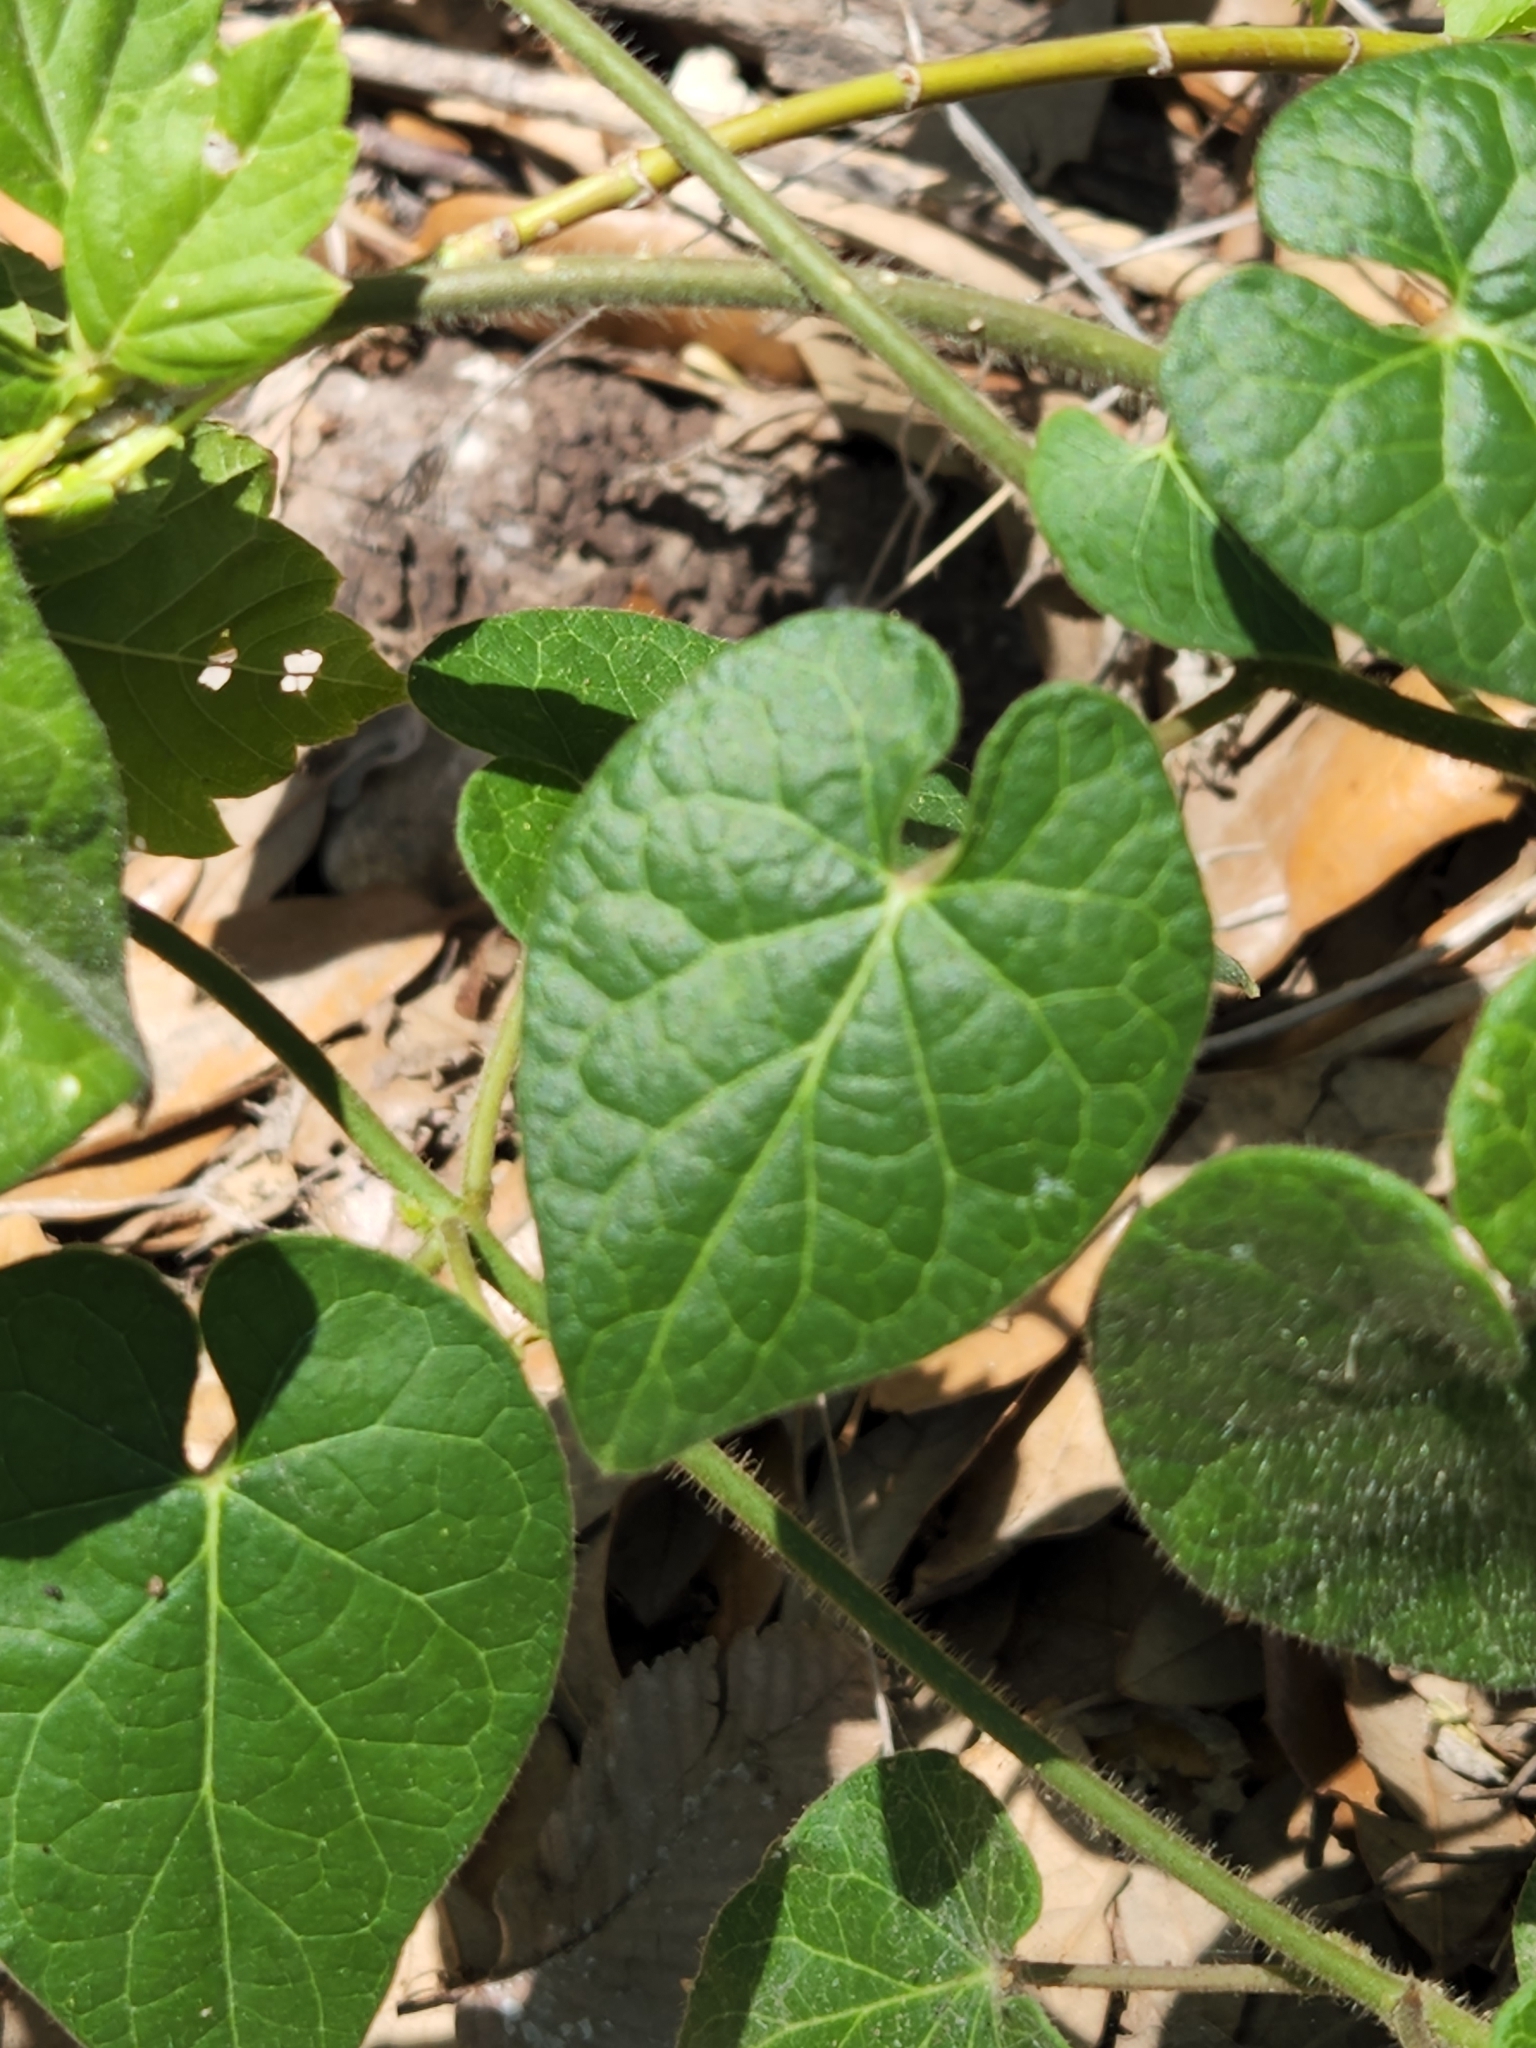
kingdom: Plantae
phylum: Tracheophyta
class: Magnoliopsida
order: Gentianales
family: Apocynaceae
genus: Dictyanthus
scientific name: Dictyanthus reticulatus
